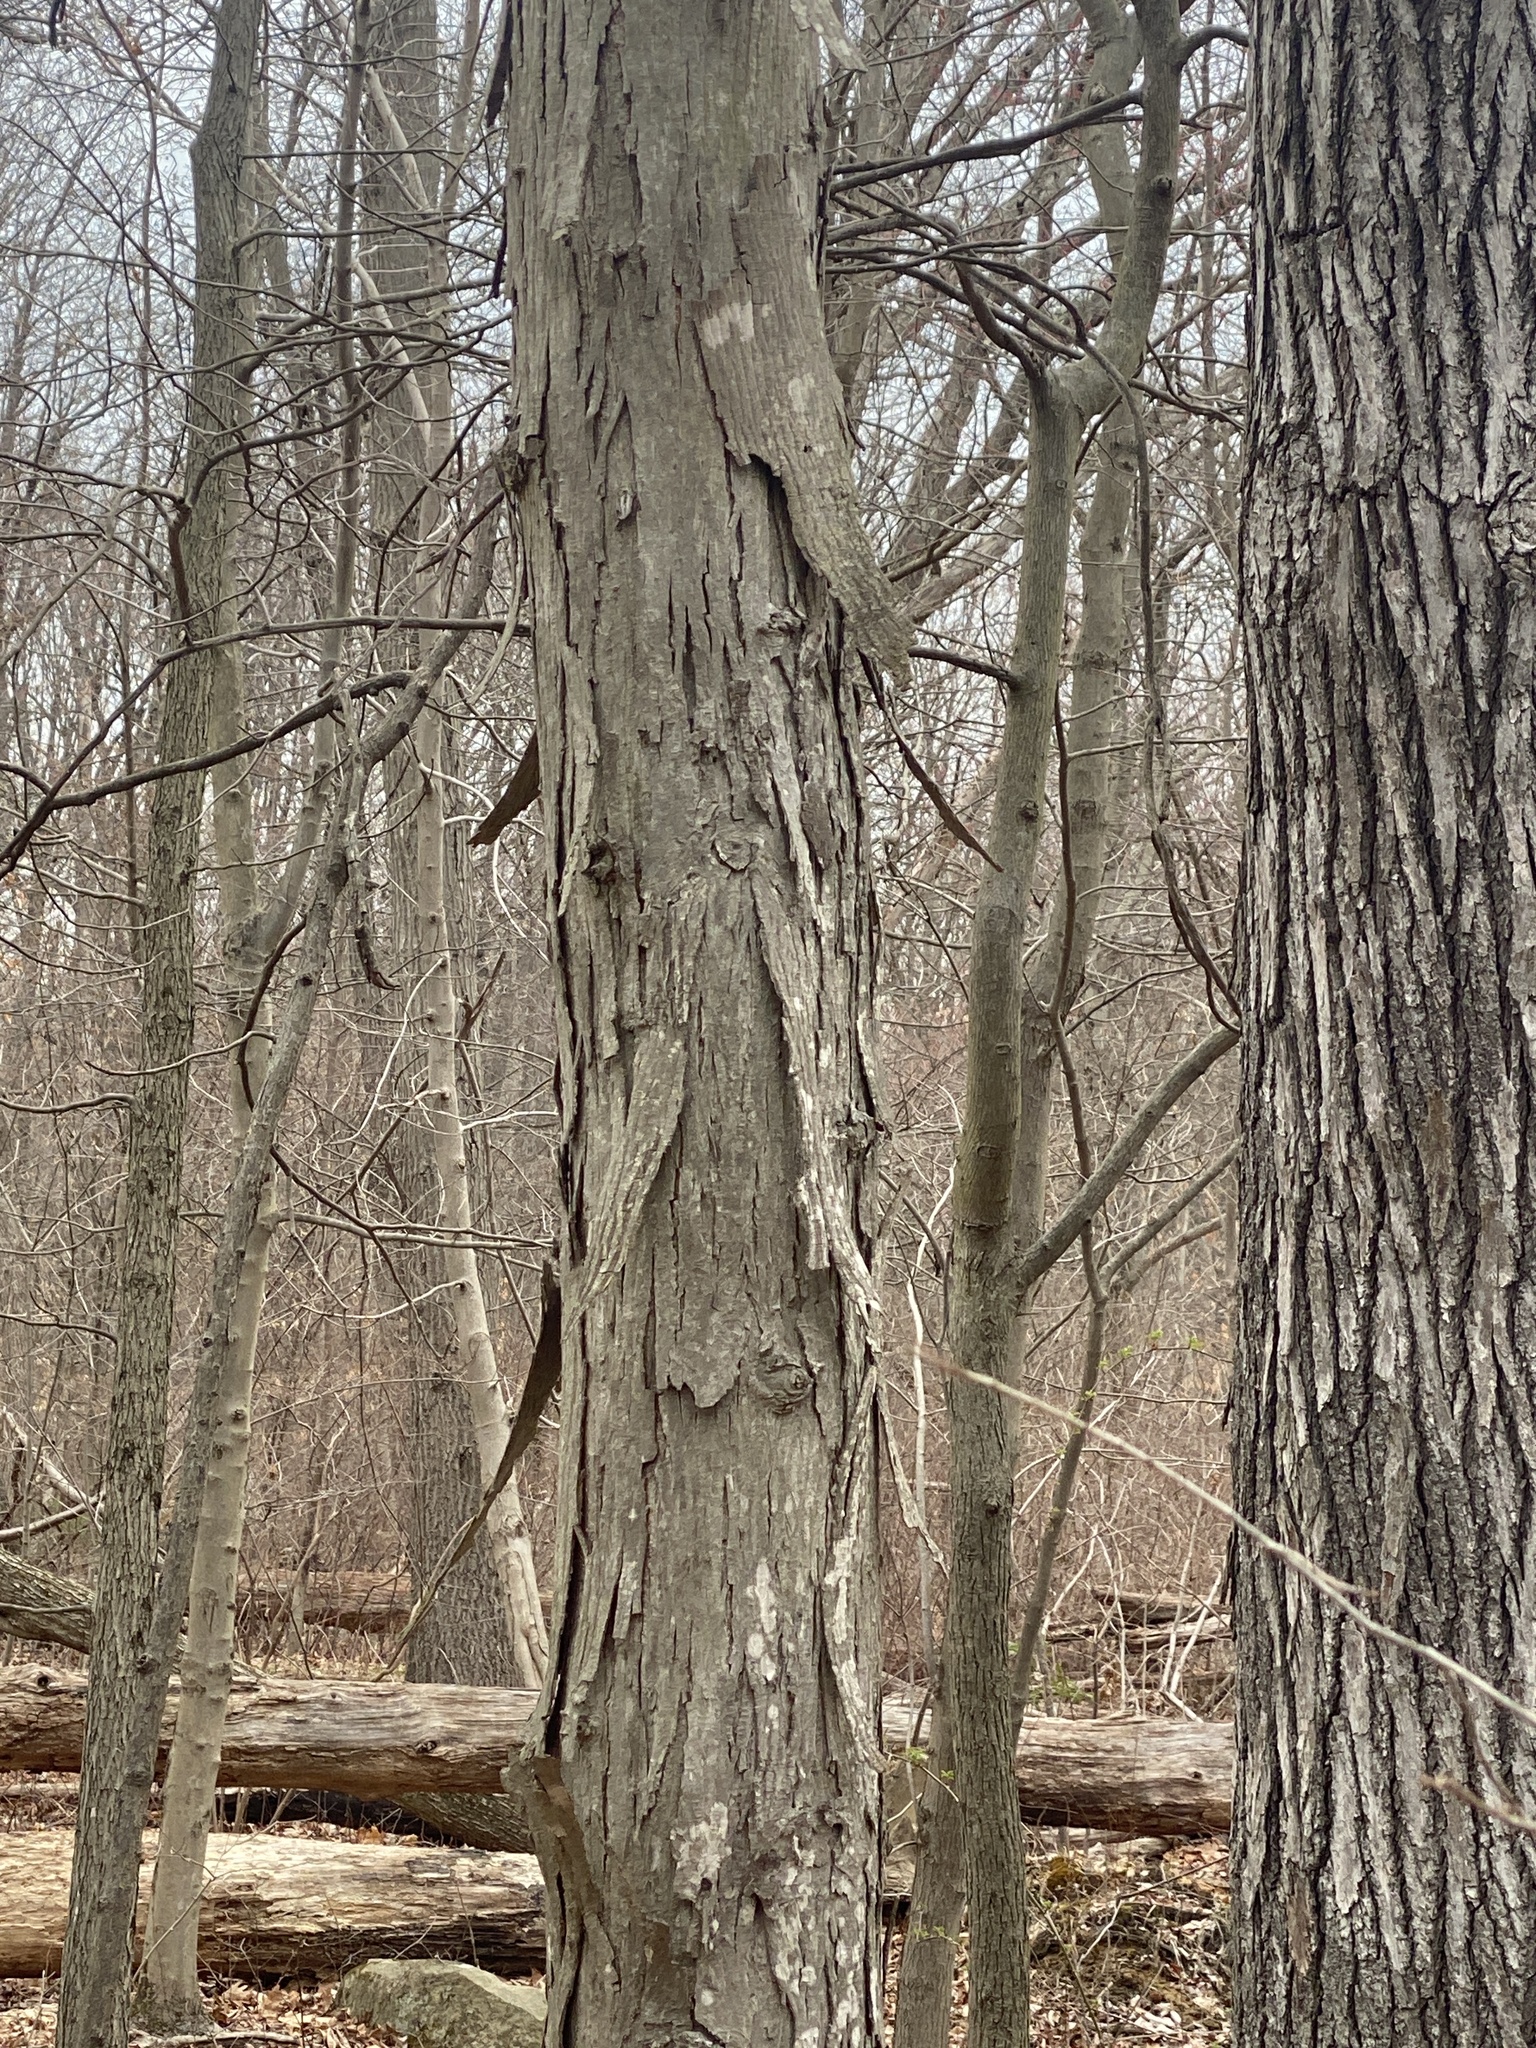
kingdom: Plantae
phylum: Tracheophyta
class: Magnoliopsida
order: Fagales
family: Juglandaceae
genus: Carya
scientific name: Carya ovata
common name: Shagbark hickory
